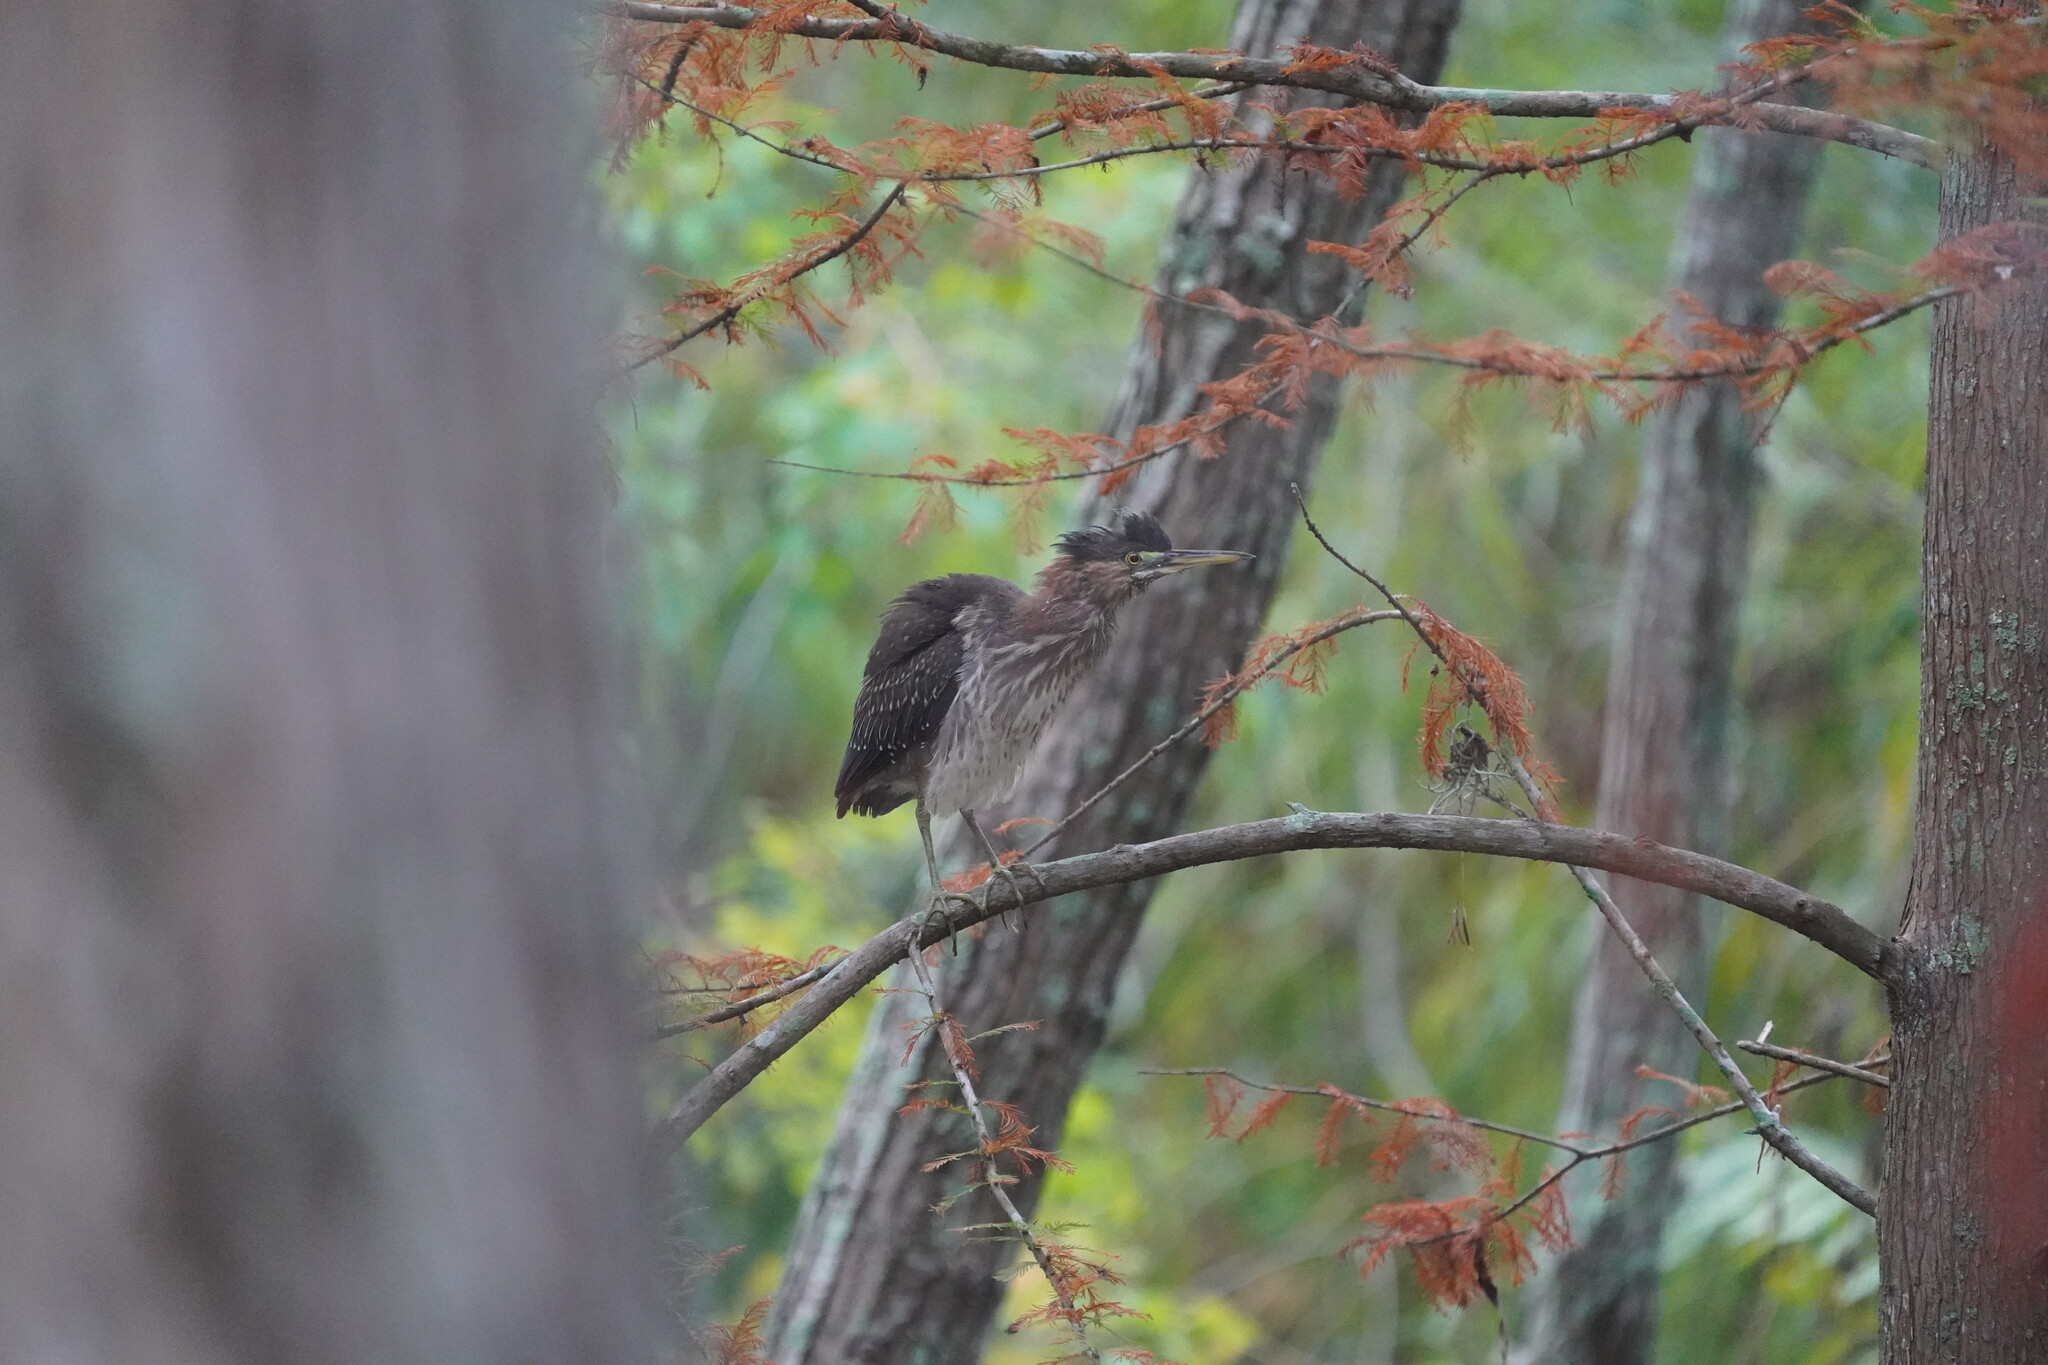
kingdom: Animalia
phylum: Chordata
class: Aves
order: Pelecaniformes
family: Ardeidae
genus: Butorides
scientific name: Butorides virescens
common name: Green heron
